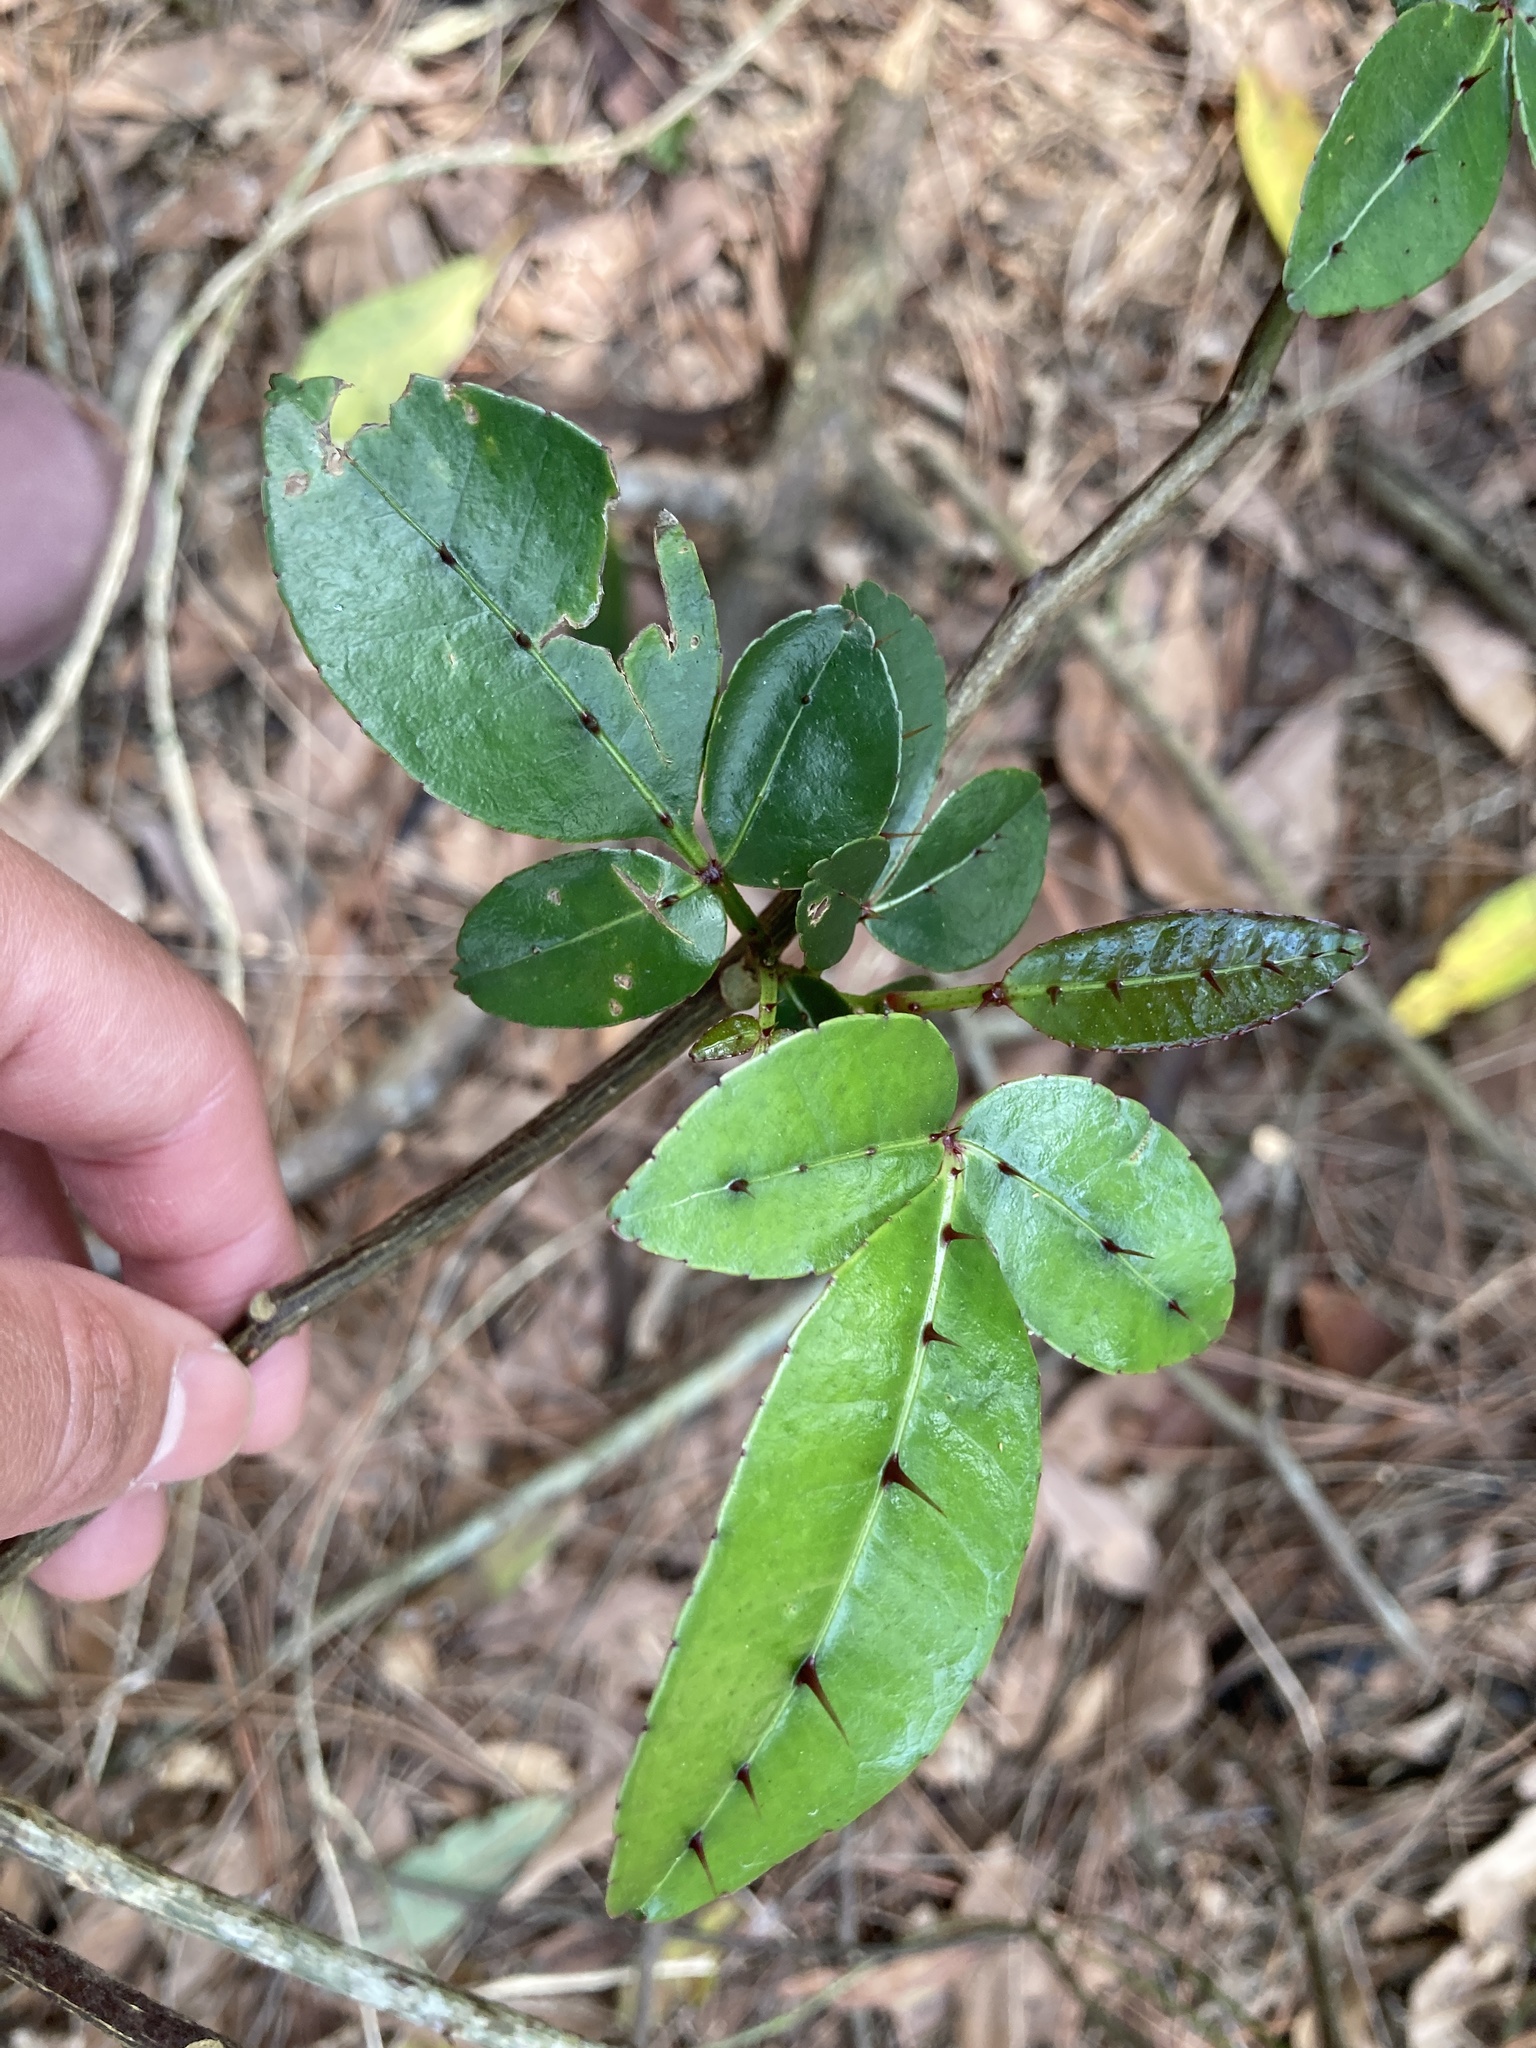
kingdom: Plantae
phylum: Tracheophyta
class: Magnoliopsida
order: Sapindales
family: Rutaceae
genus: Zanthoxylum
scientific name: Zanthoxylum nitidum
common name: Shiny-leaf prickly-ash
